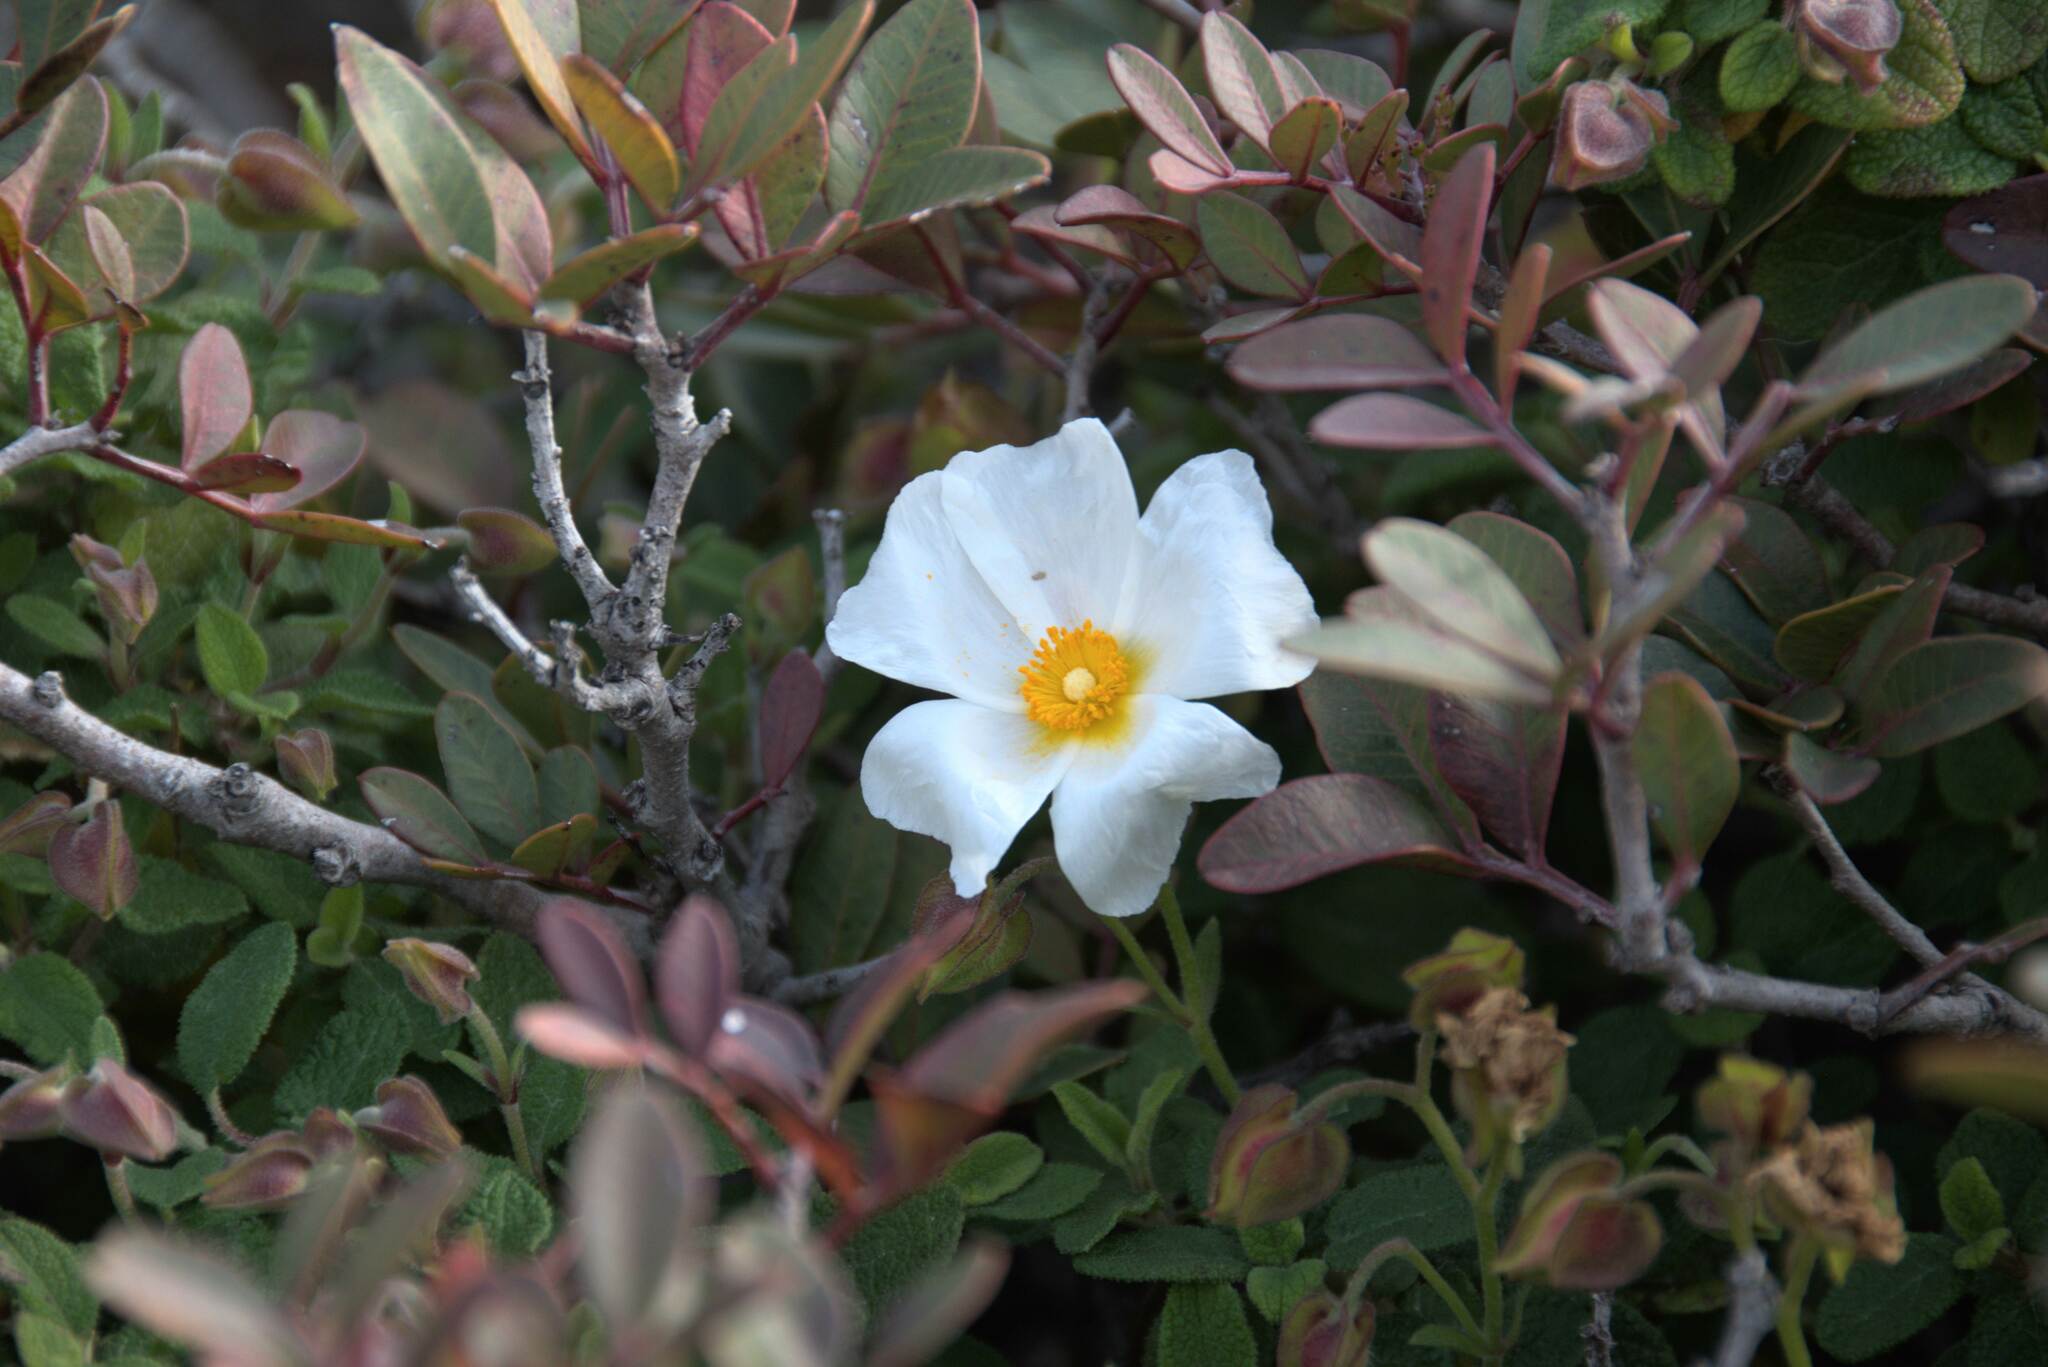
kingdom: Plantae
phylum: Tracheophyta
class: Magnoliopsida
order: Malvales
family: Cistaceae
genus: Cistus
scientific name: Cistus salviifolius
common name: Salvia cistus
